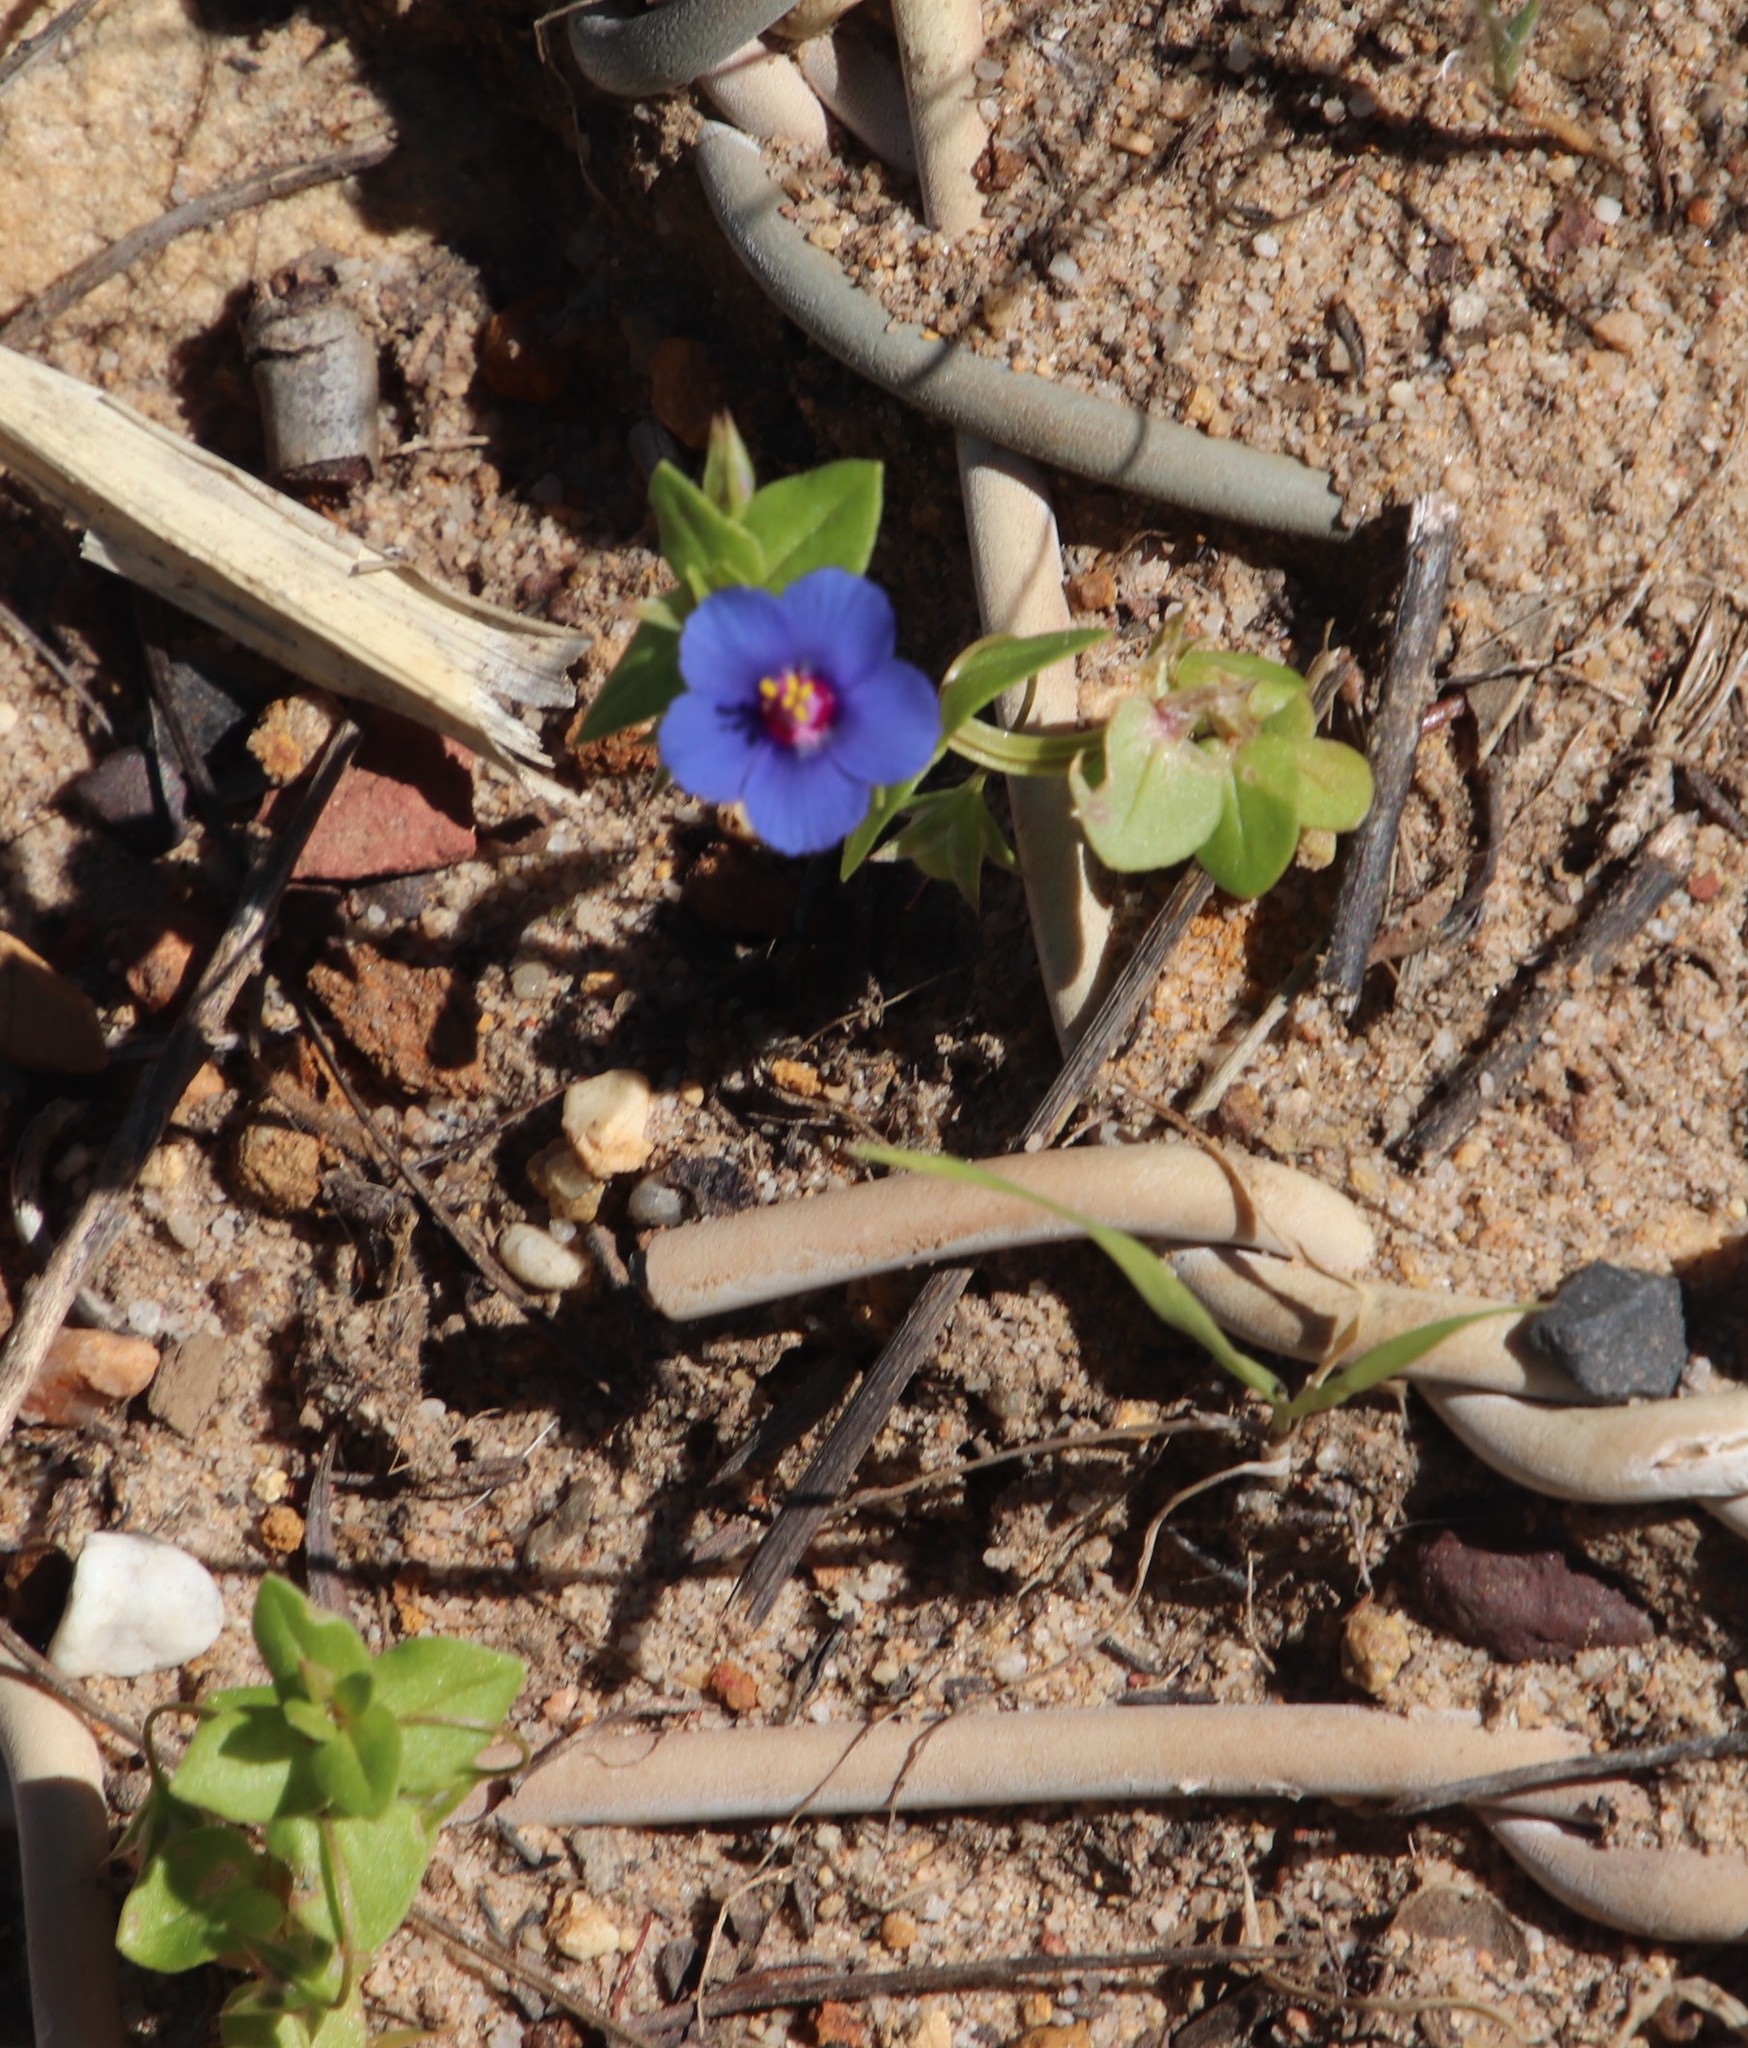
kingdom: Plantae
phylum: Tracheophyta
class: Magnoliopsida
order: Ericales
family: Primulaceae
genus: Lysimachia
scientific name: Lysimachia loeflingii
